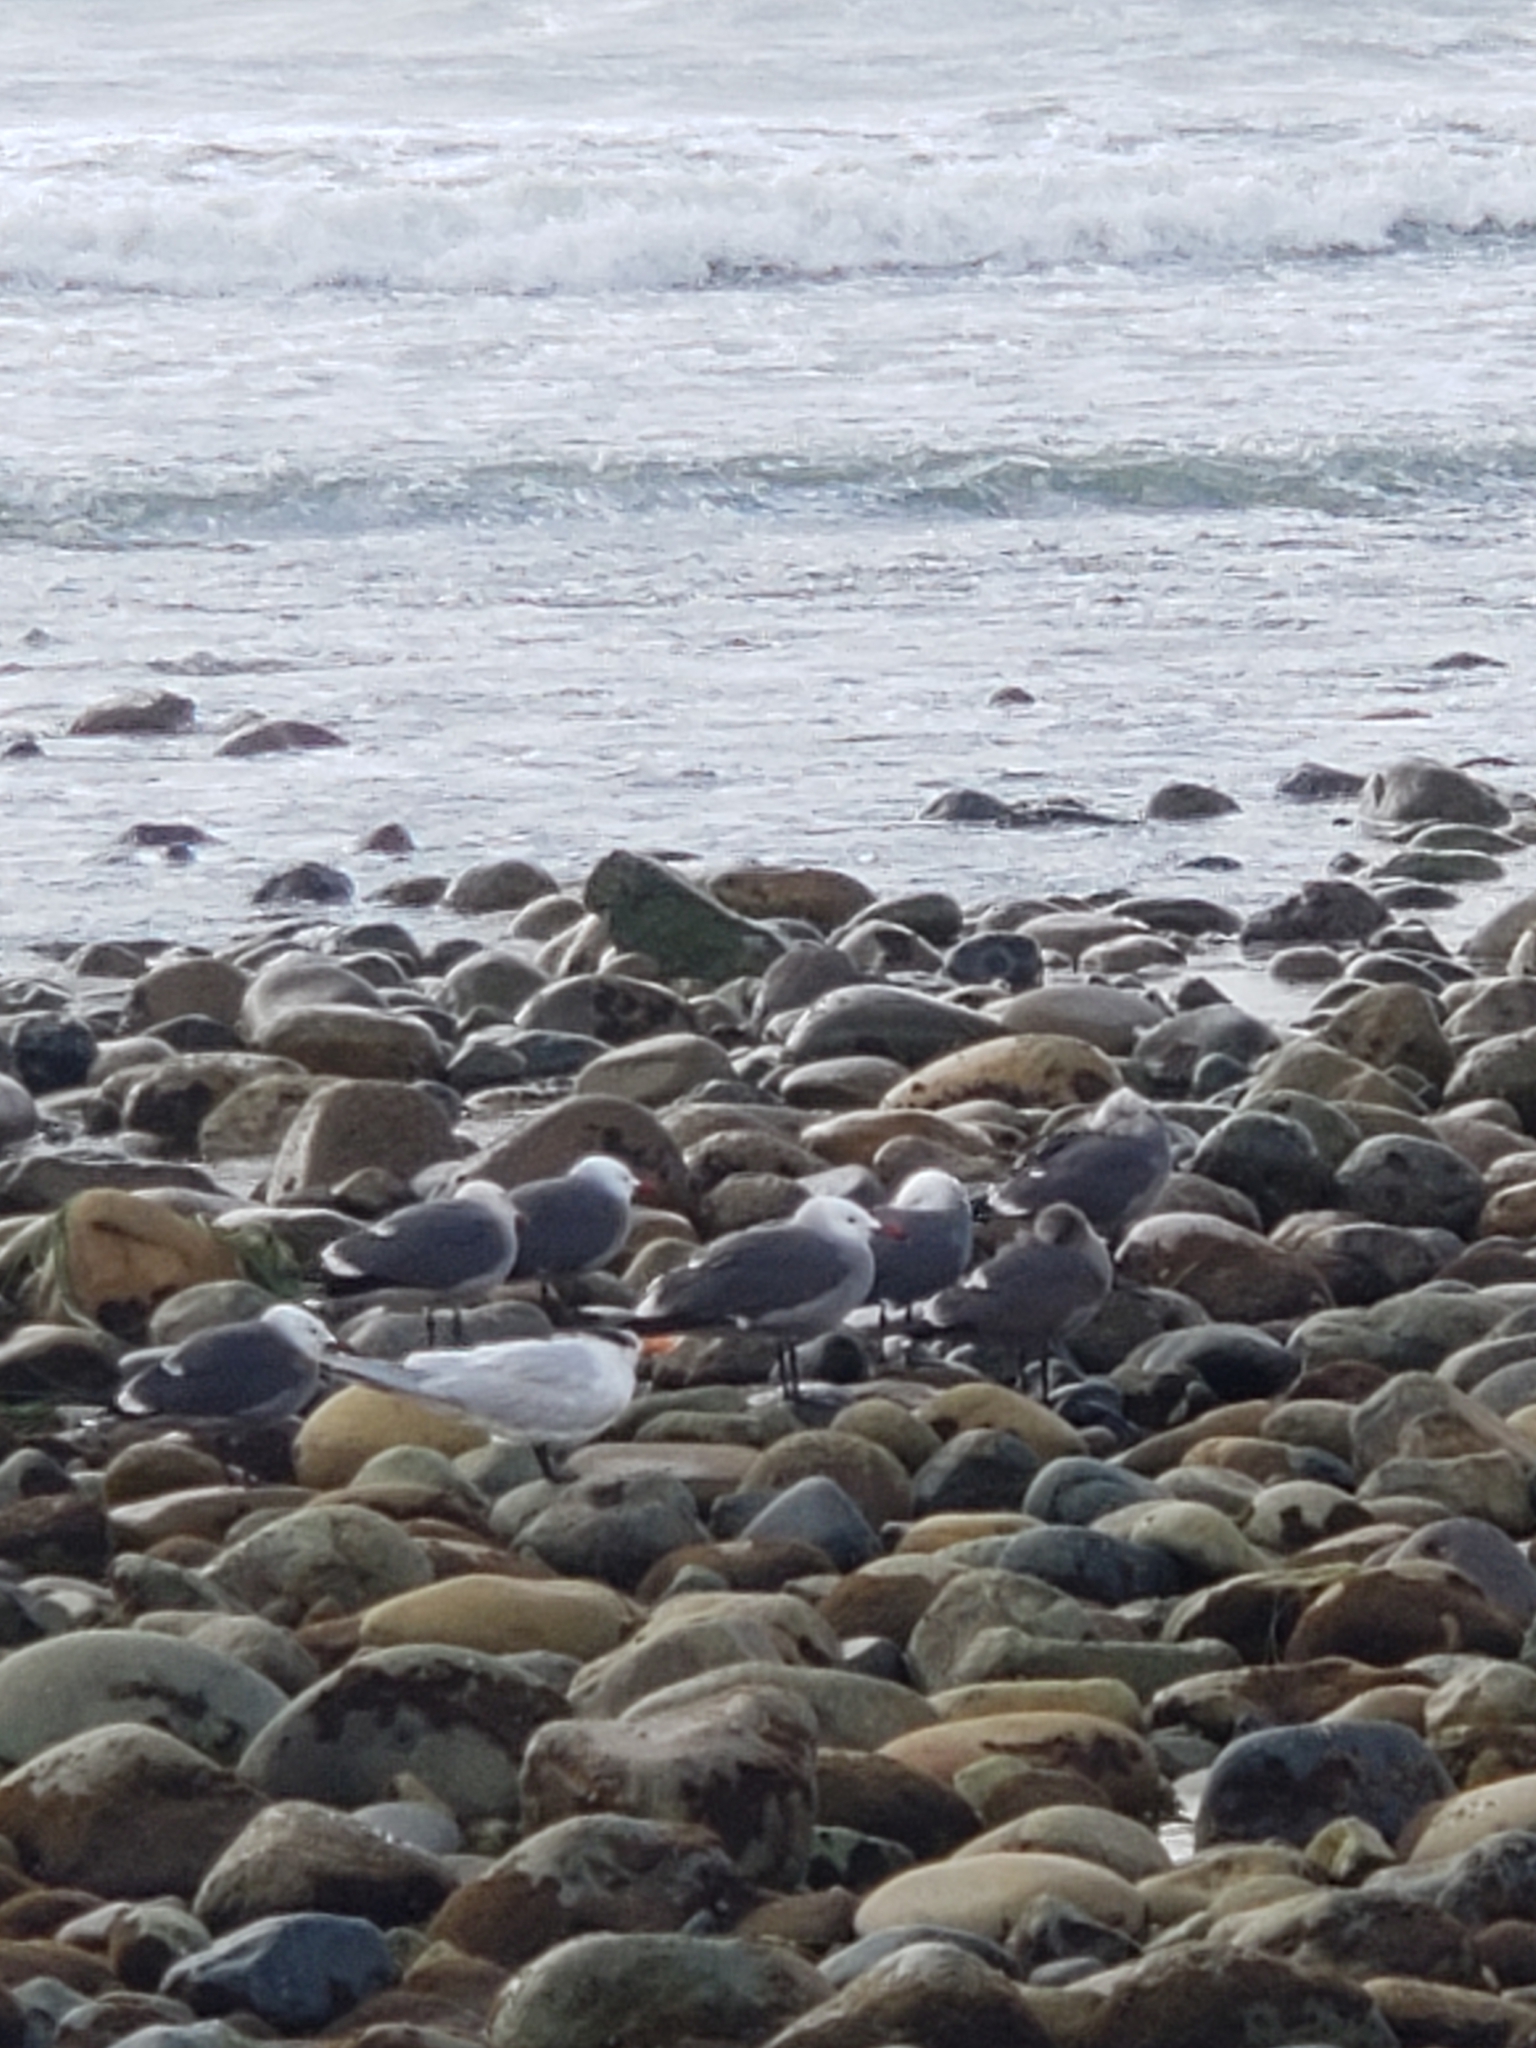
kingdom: Animalia
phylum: Chordata
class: Aves
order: Charadriiformes
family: Laridae
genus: Larus
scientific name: Larus heermanni
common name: Heermann's gull
